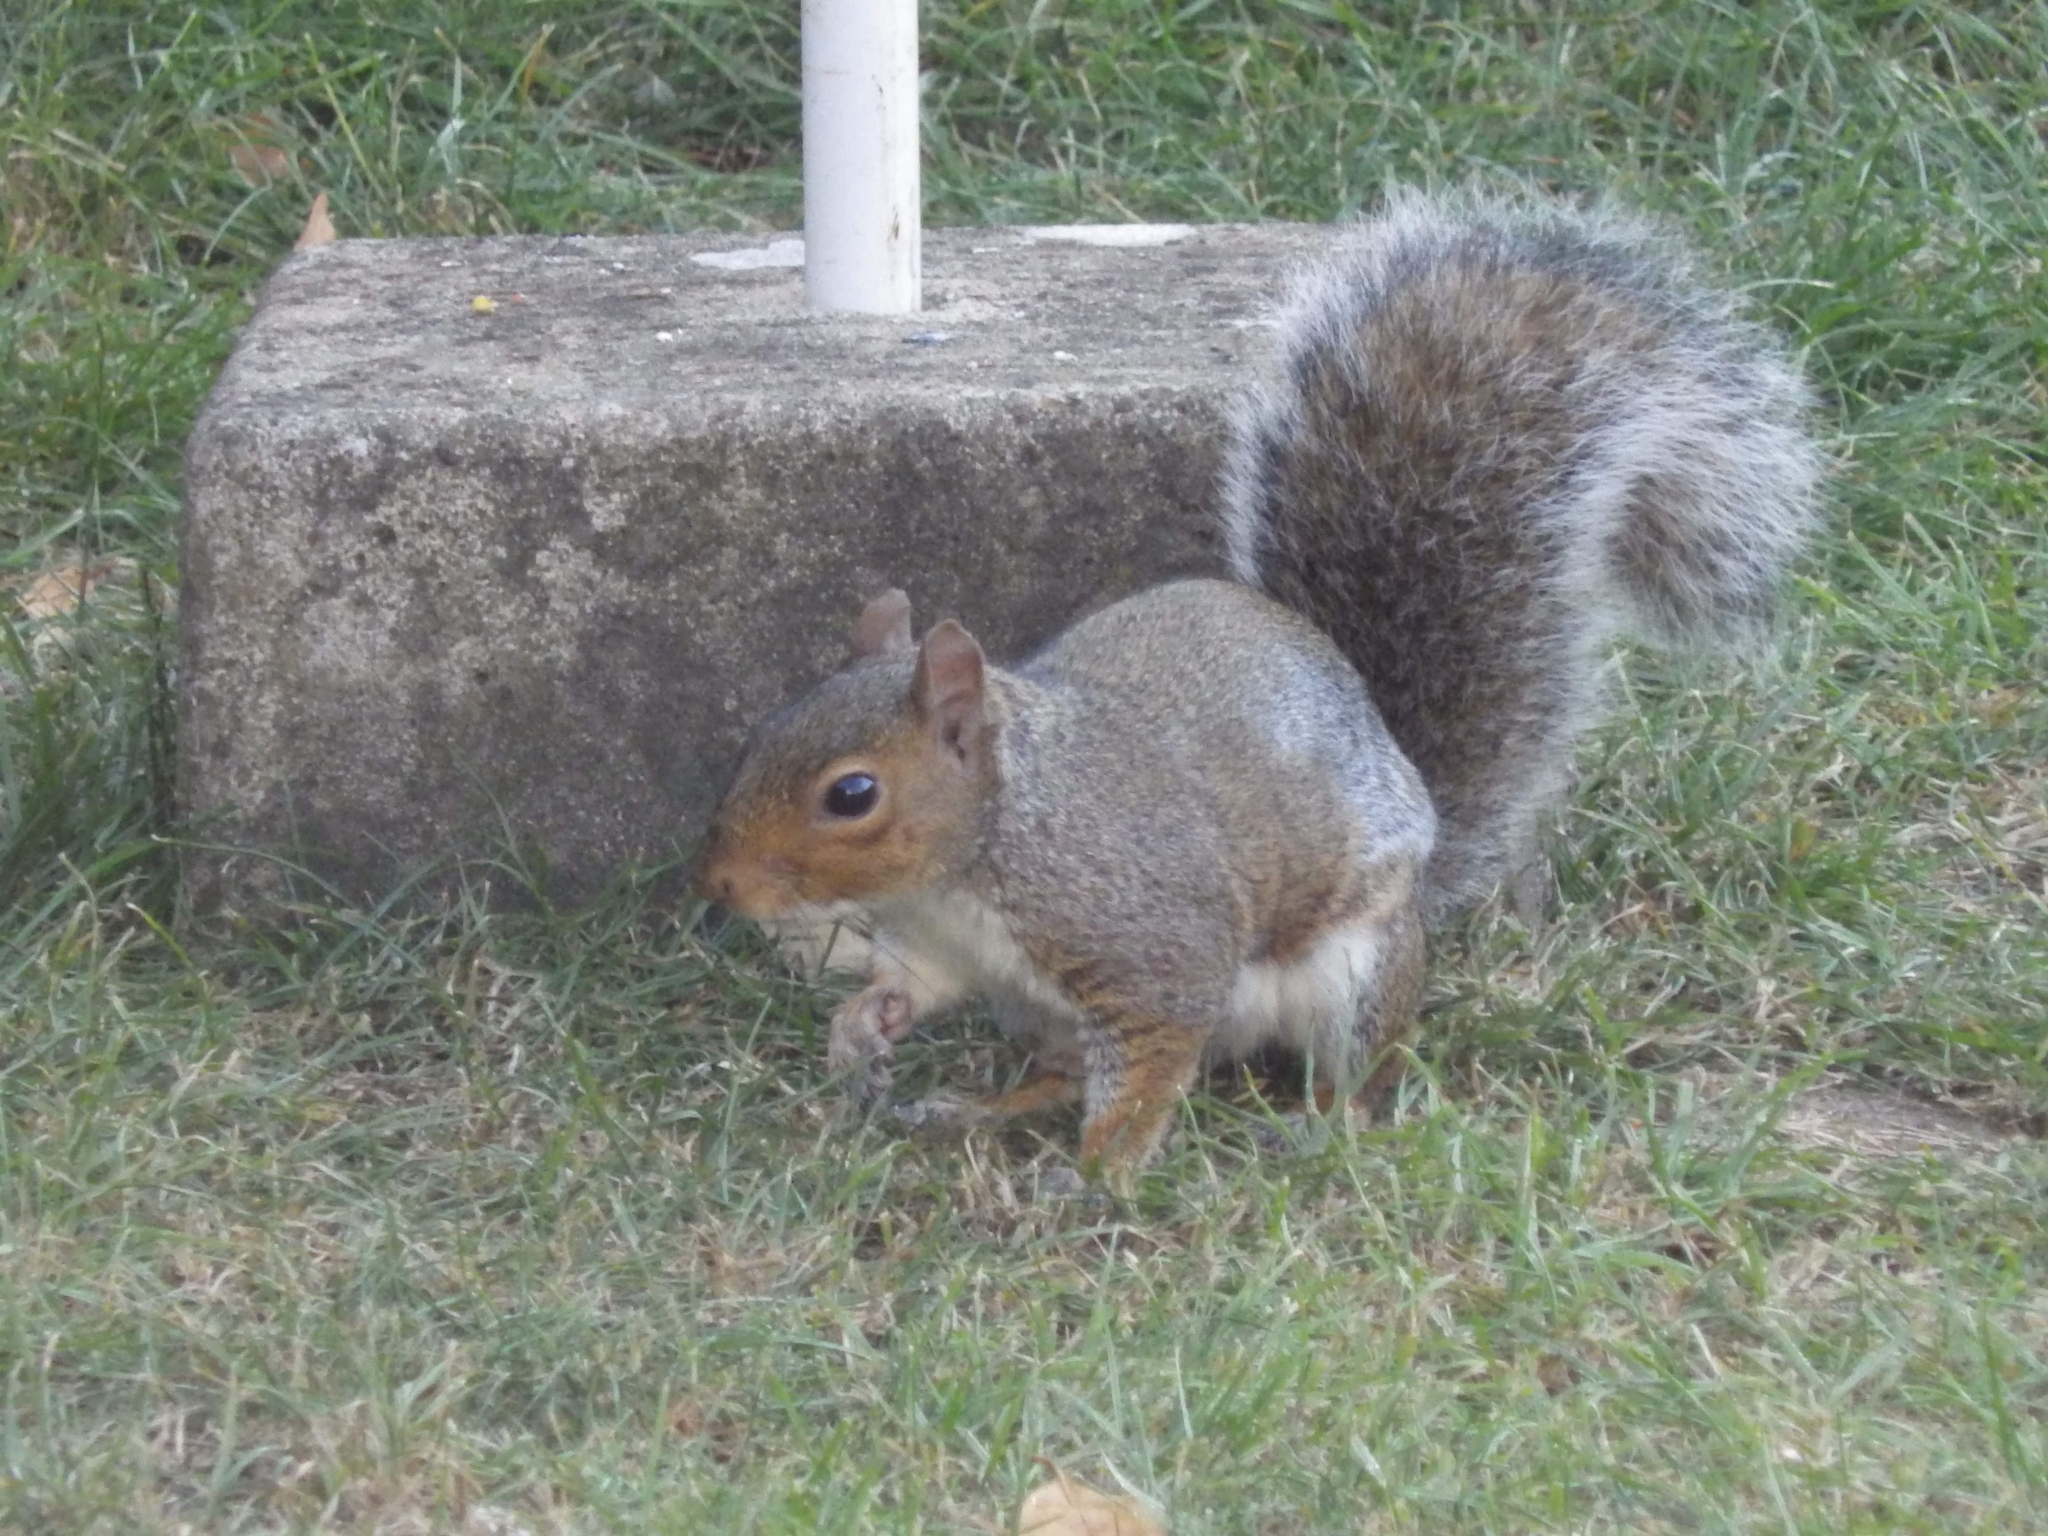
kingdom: Animalia
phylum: Chordata
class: Mammalia
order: Rodentia
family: Sciuridae
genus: Sciurus
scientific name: Sciurus carolinensis
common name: Eastern gray squirrel
